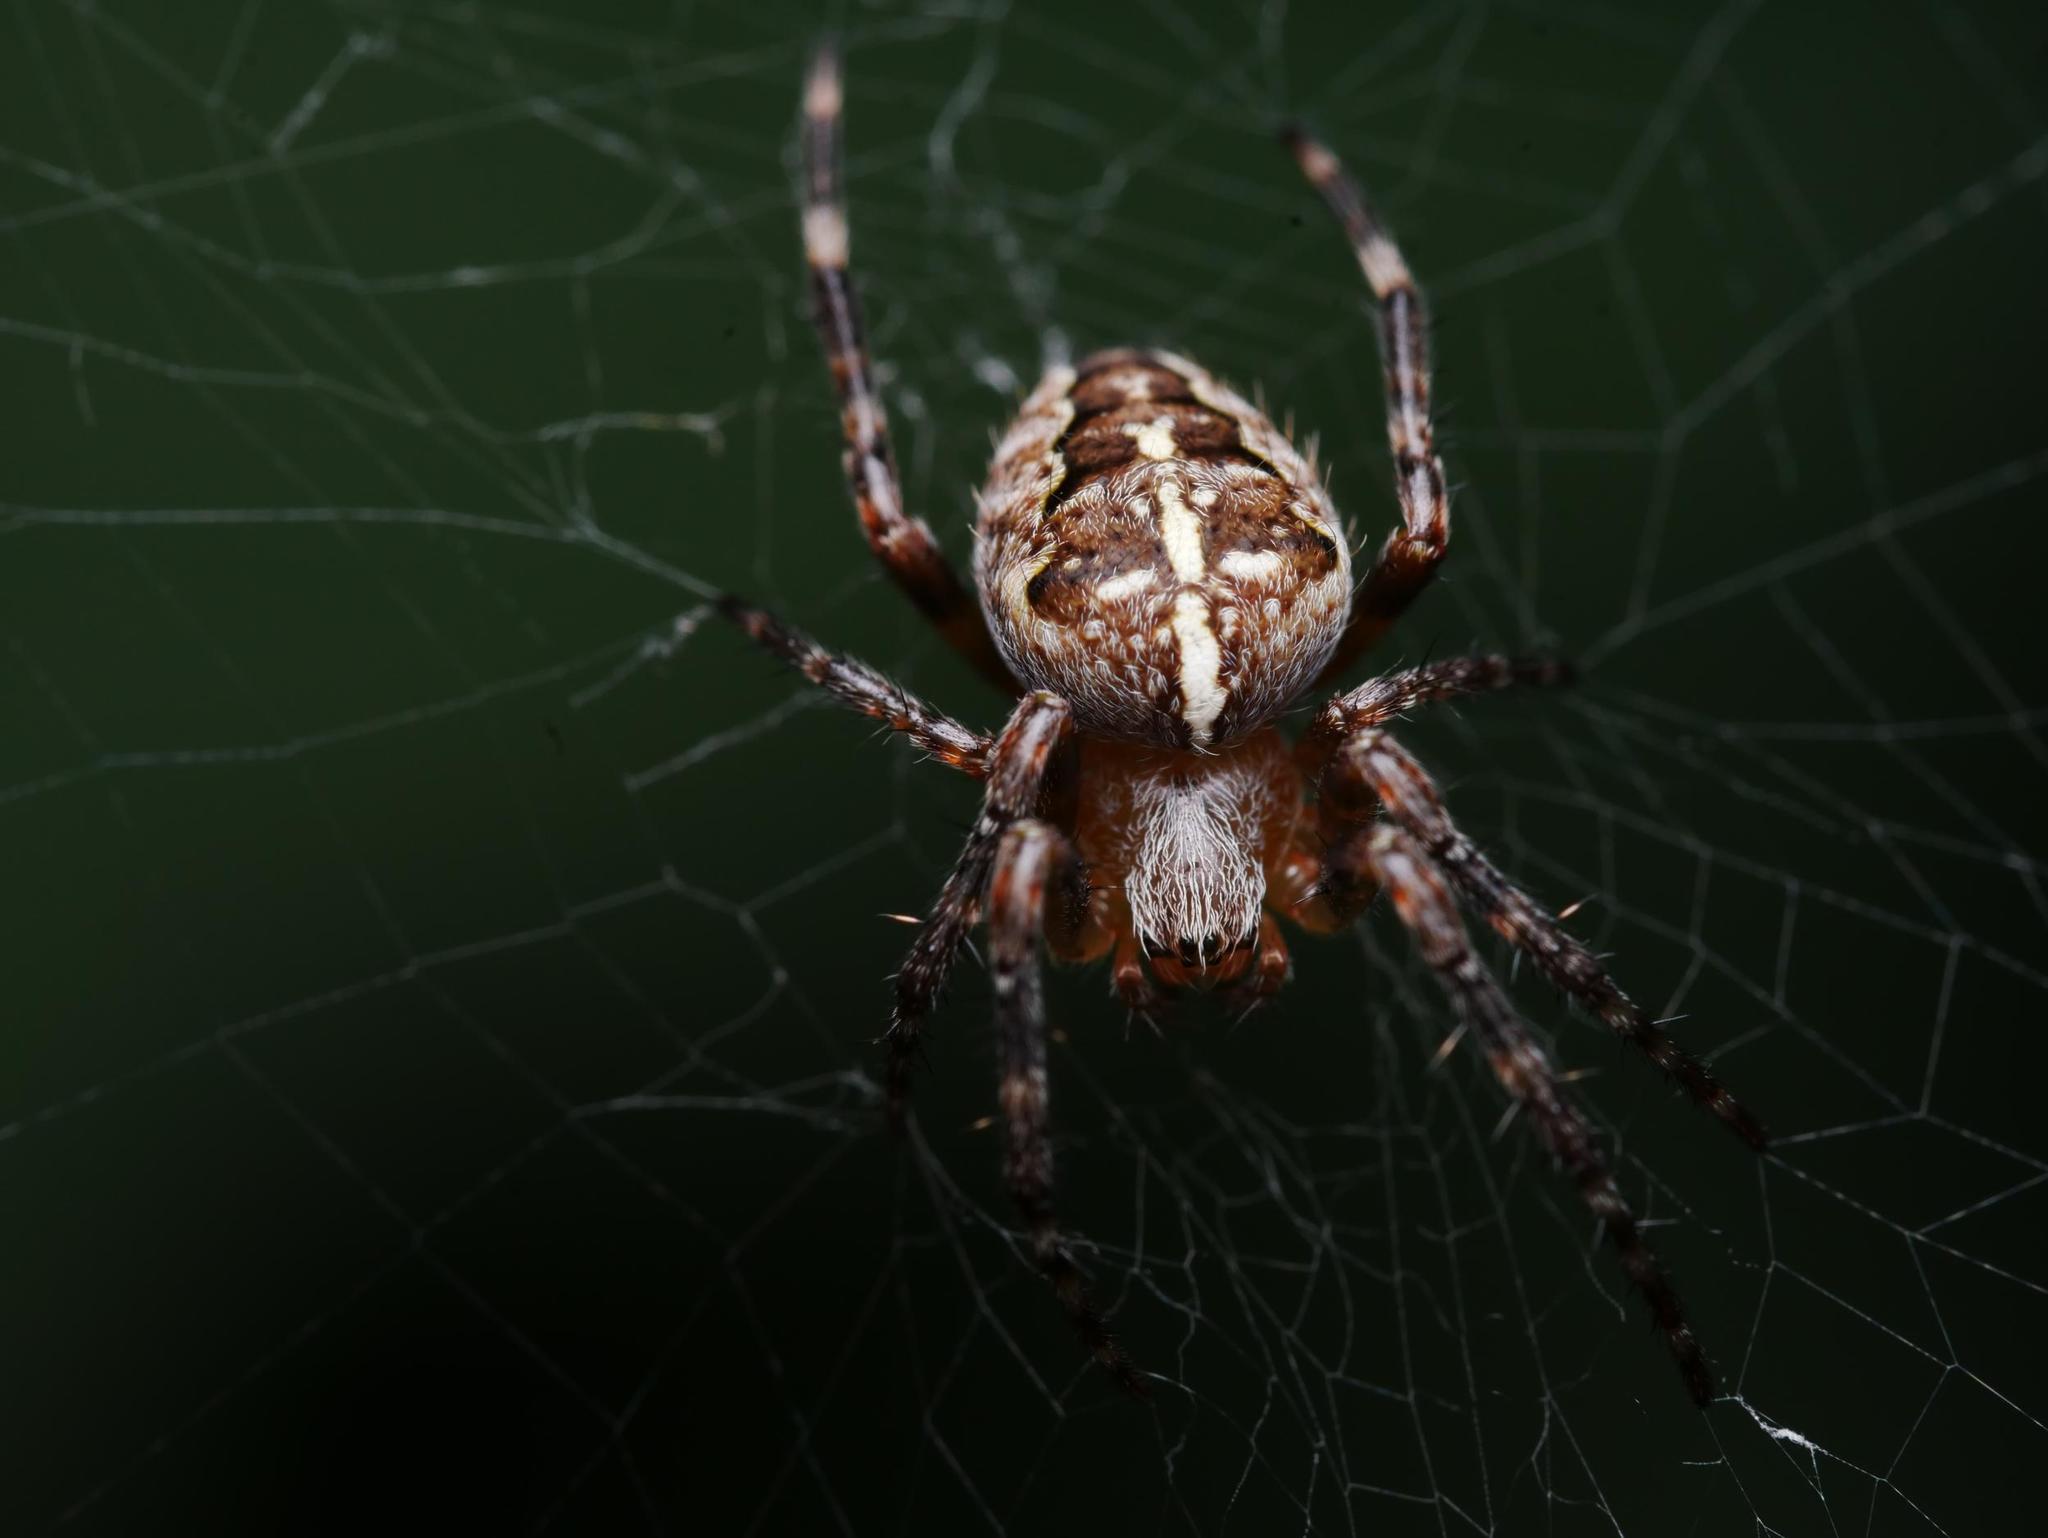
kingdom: Animalia
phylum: Arthropoda
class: Arachnida
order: Araneae
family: Araneidae
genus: Araneus
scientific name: Araneus diadematus
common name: Cross orbweaver
